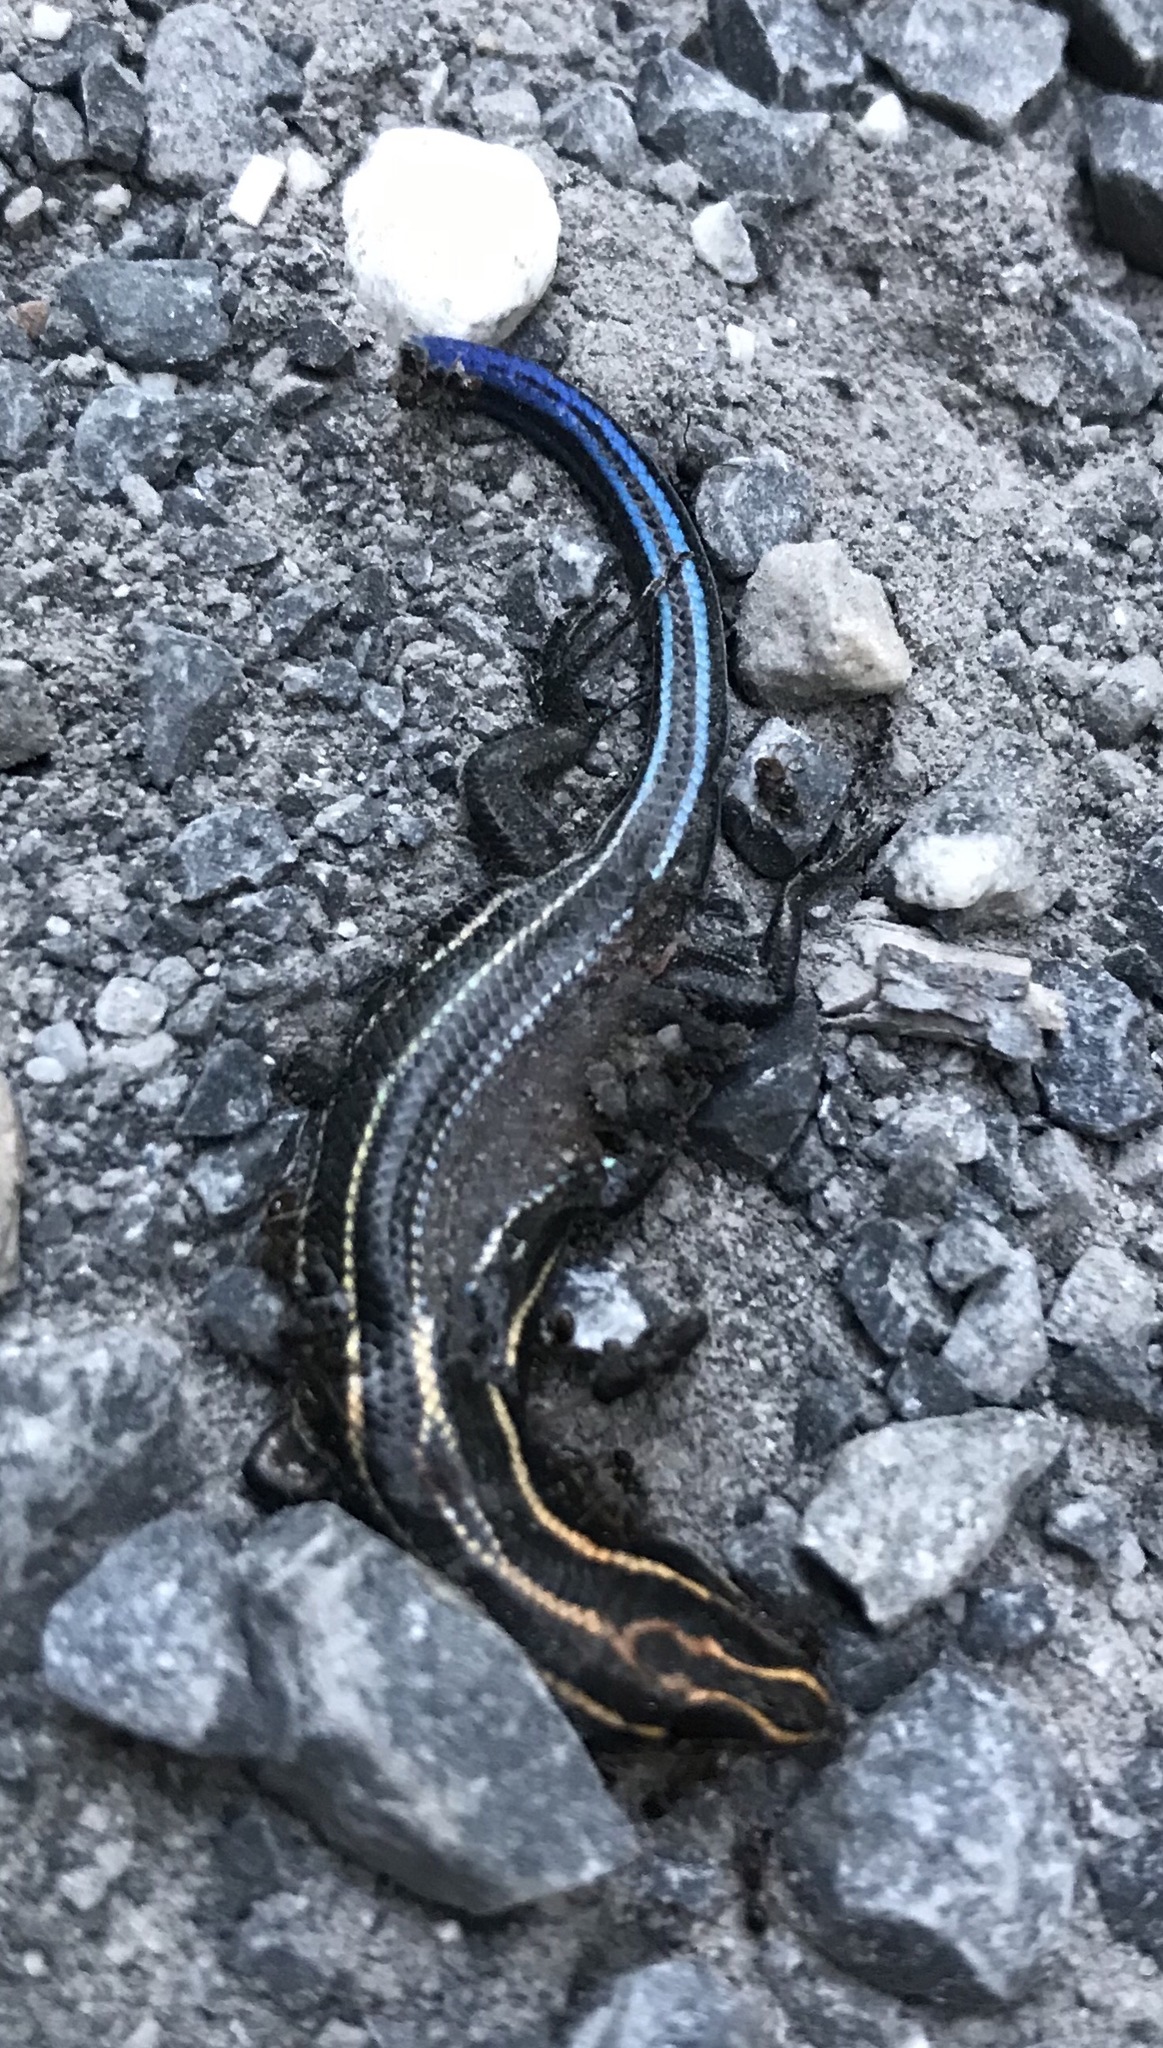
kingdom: Animalia
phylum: Chordata
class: Squamata
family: Scincidae
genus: Plestiodon
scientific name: Plestiodon fasciatus
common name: Five-lined skink
